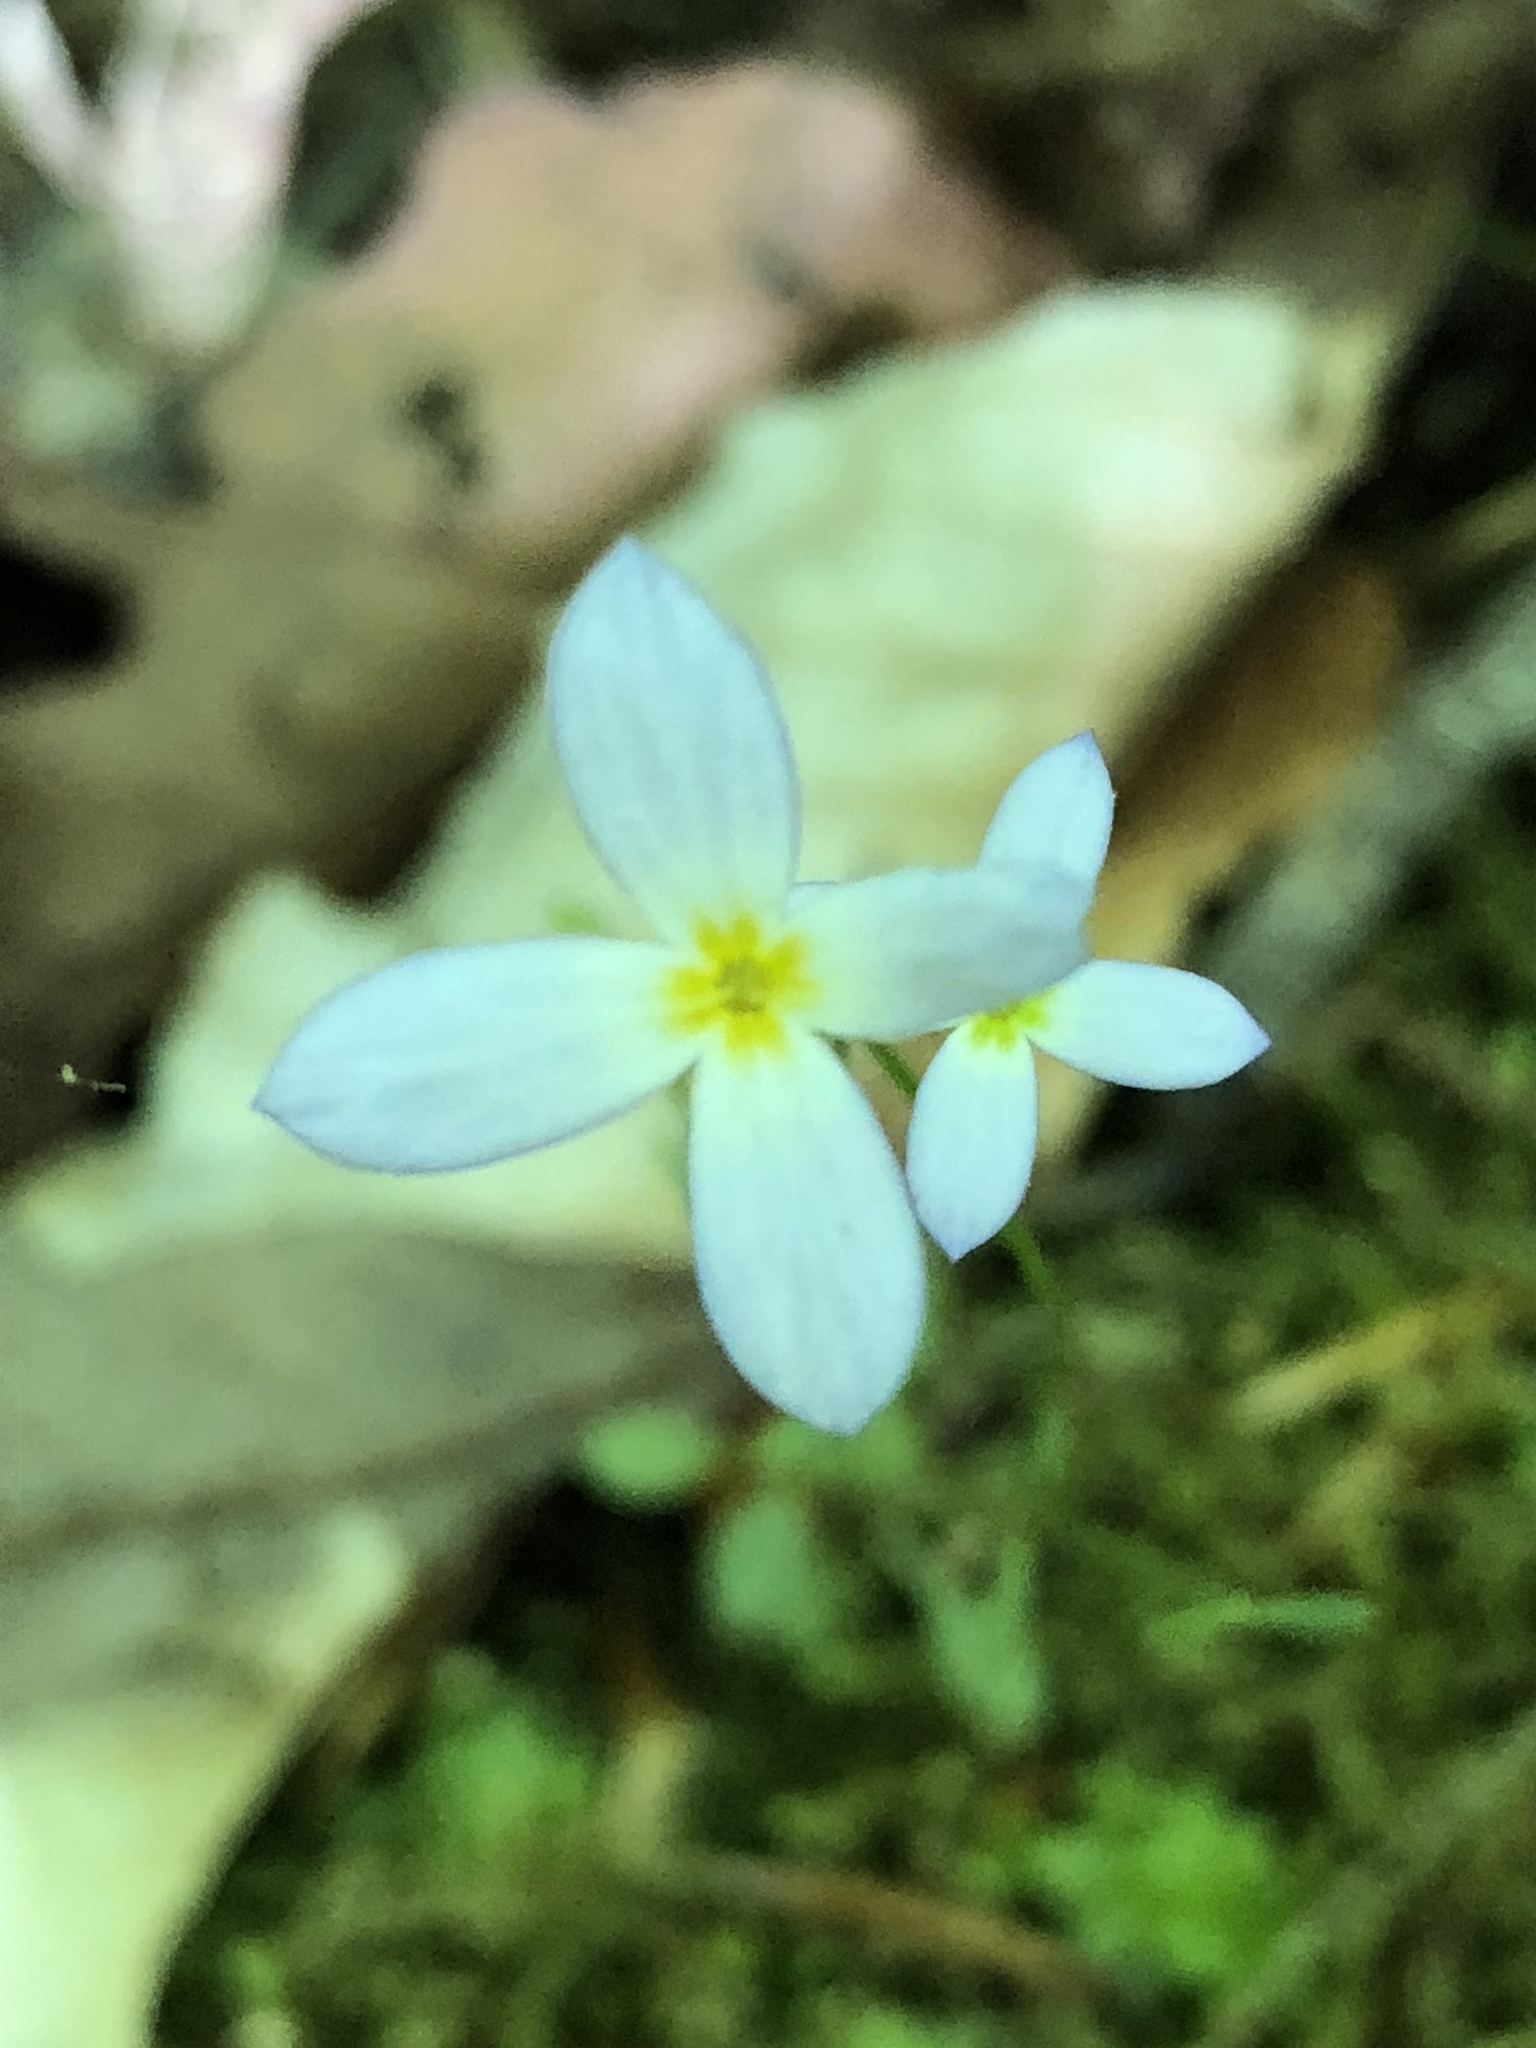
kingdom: Plantae
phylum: Tracheophyta
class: Magnoliopsida
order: Gentianales
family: Rubiaceae
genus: Houstonia
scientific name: Houstonia caerulea
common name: Bluets
